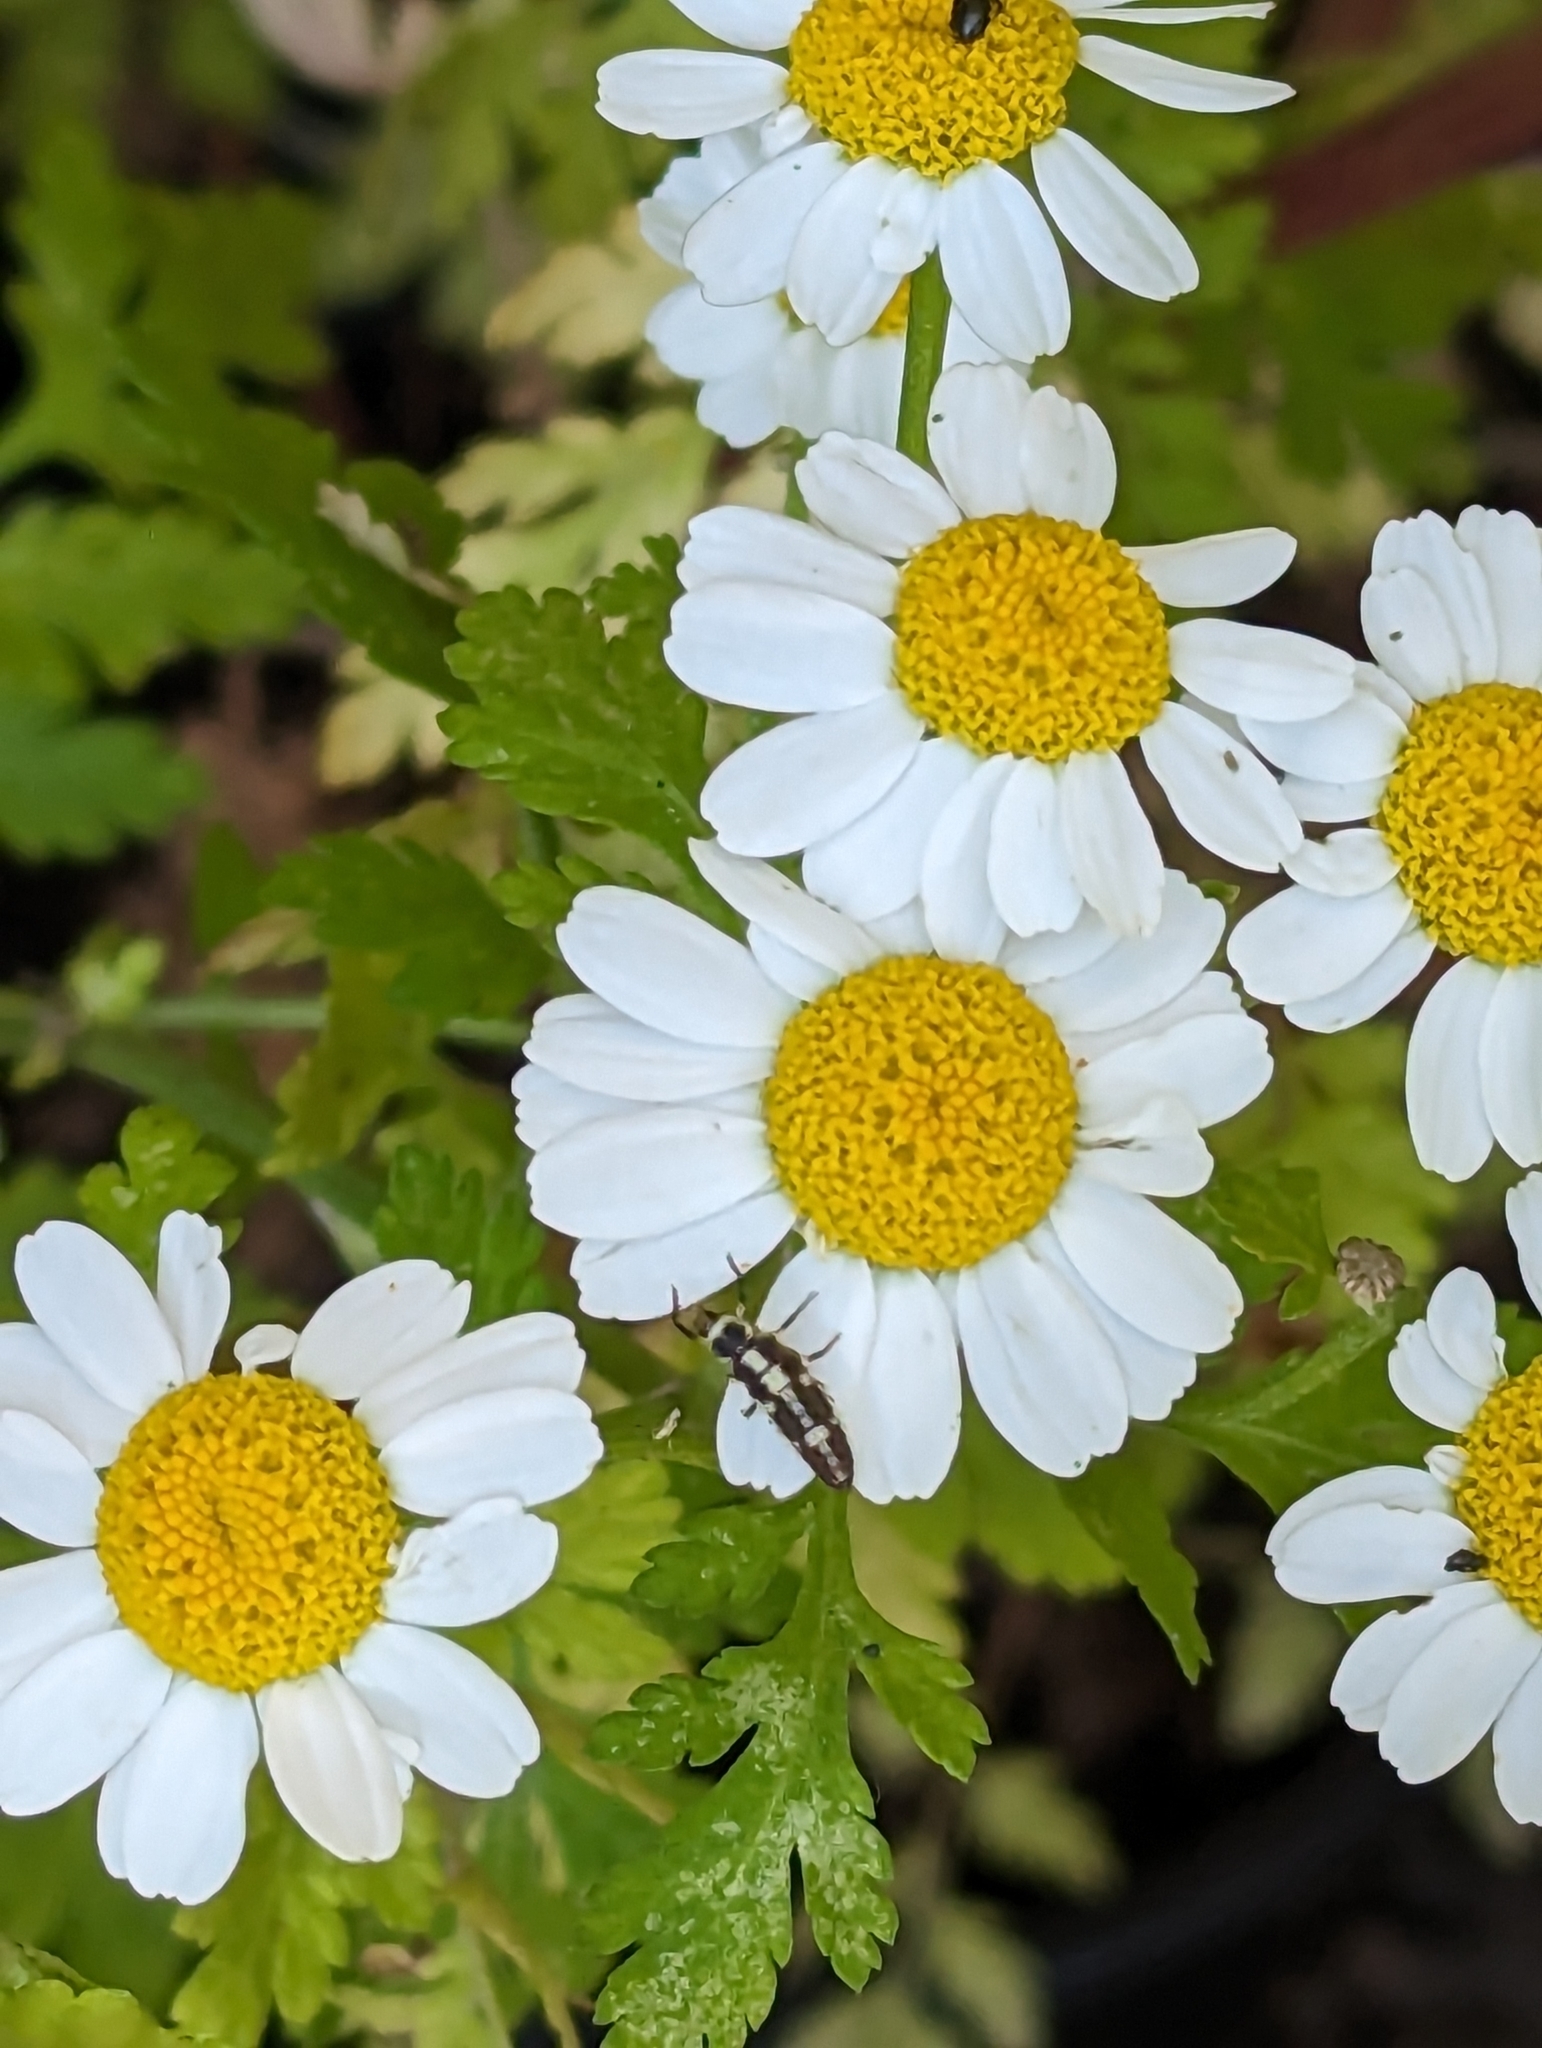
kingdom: Animalia
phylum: Arthropoda
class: Insecta
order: Coleoptera
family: Coccinellidae
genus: Propylaea
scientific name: Propylaea quatuordecimpunctata
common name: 14-spotted ladybird beetle
